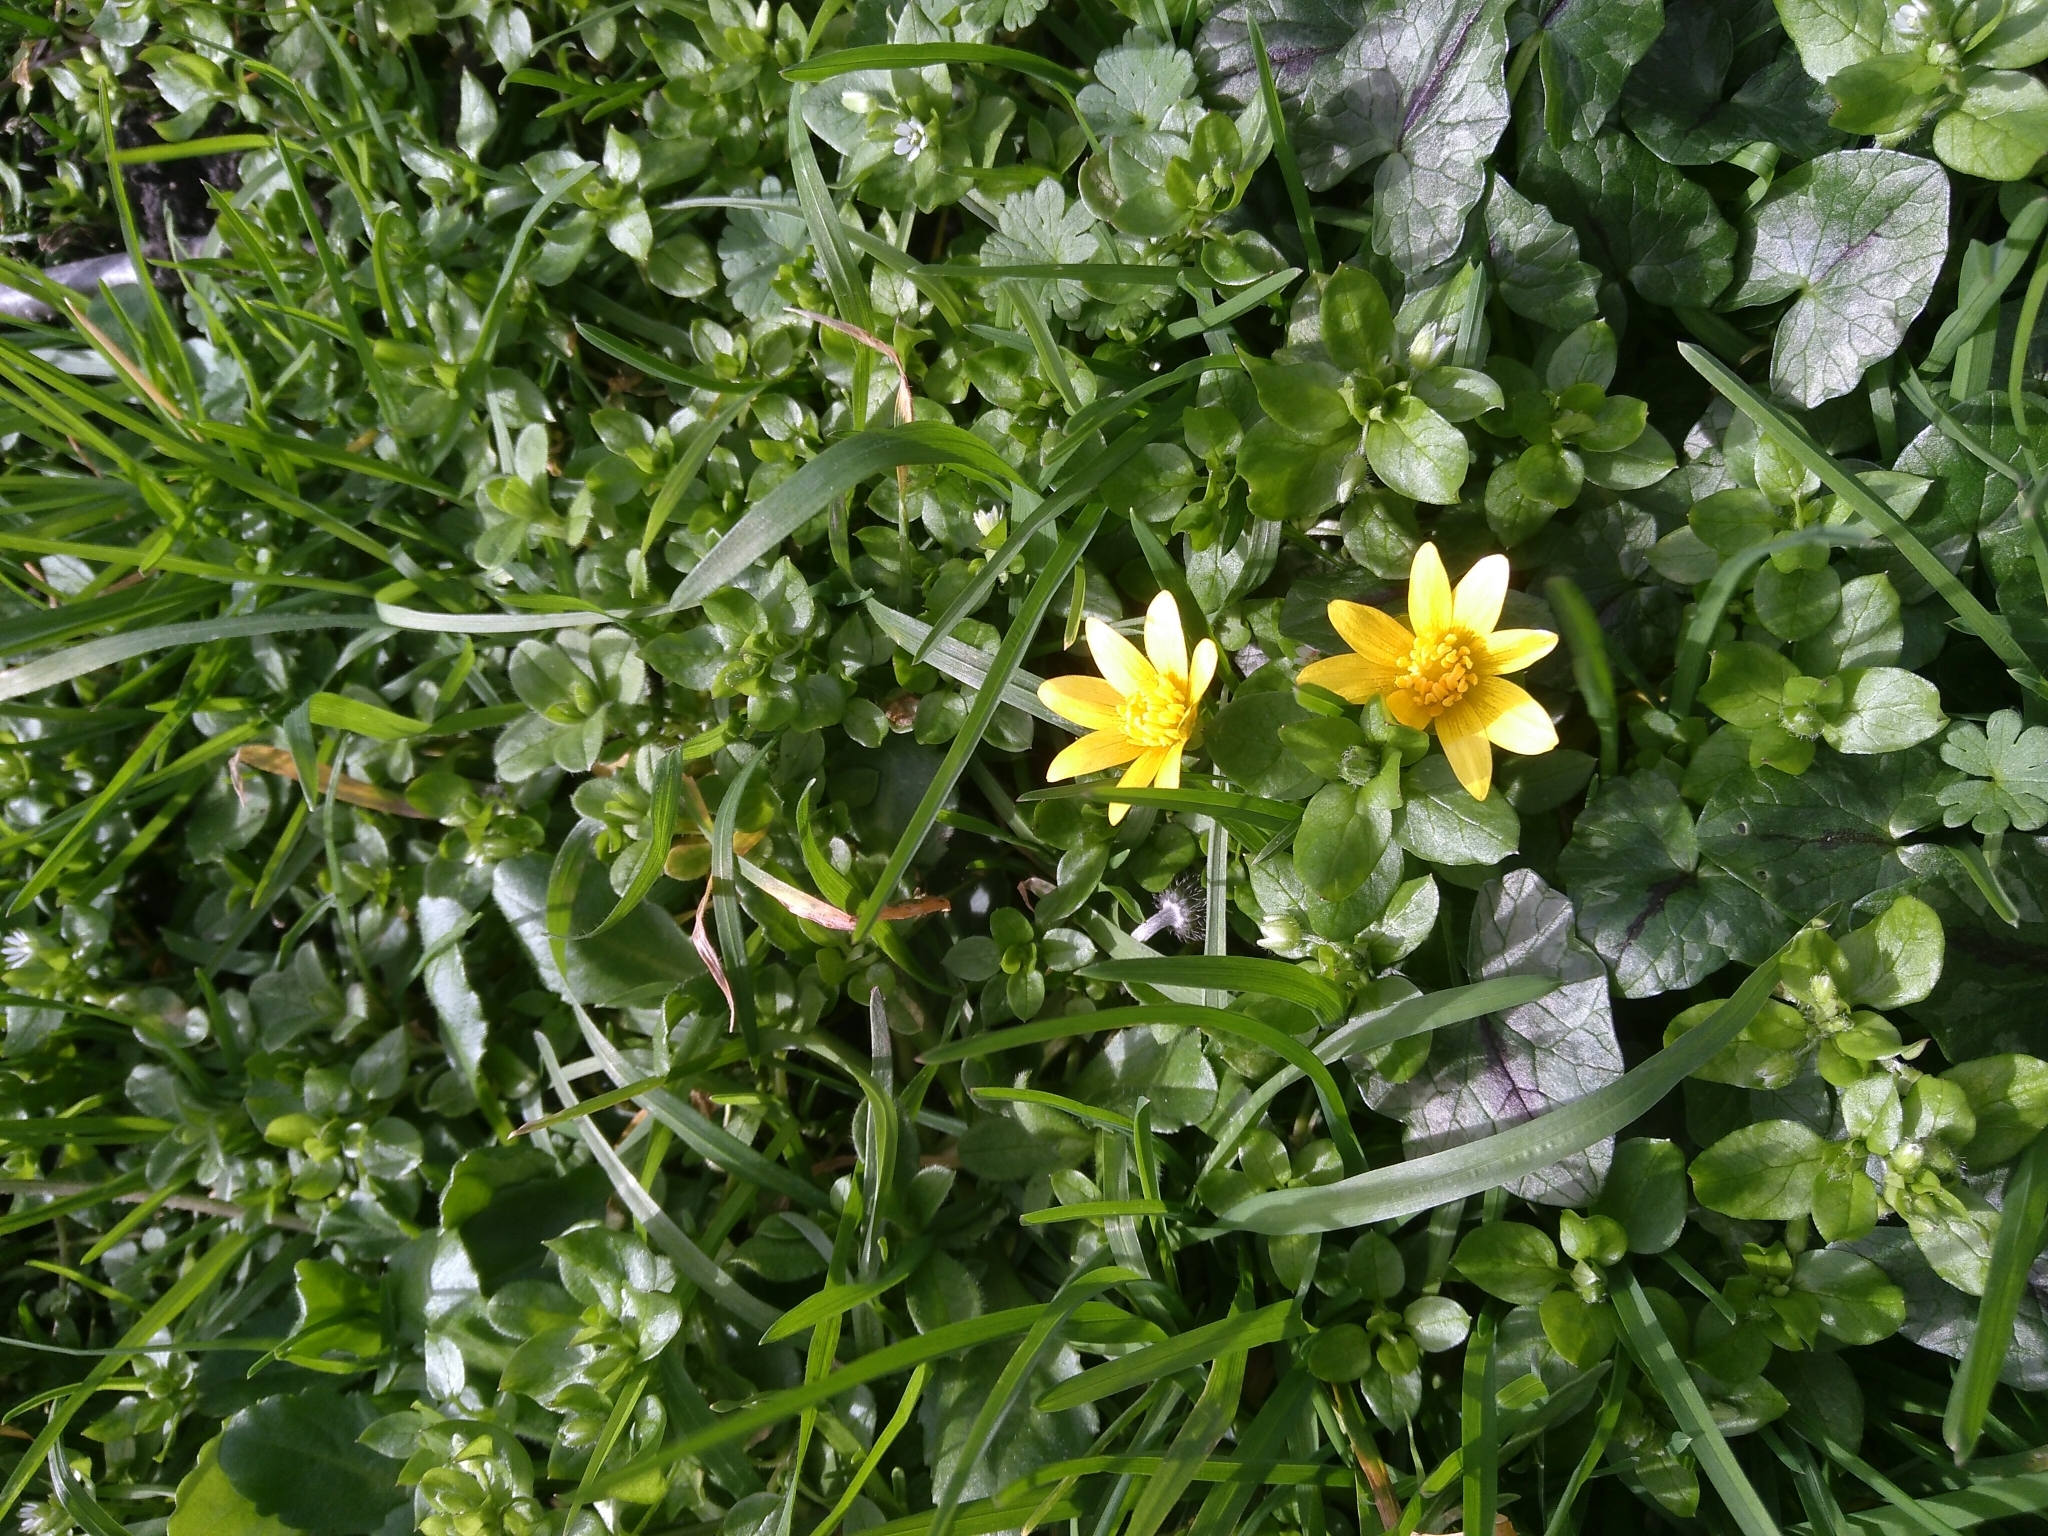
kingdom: Plantae
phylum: Tracheophyta
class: Magnoliopsida
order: Ranunculales
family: Ranunculaceae
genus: Ficaria
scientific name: Ficaria verna
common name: Lesser celandine
